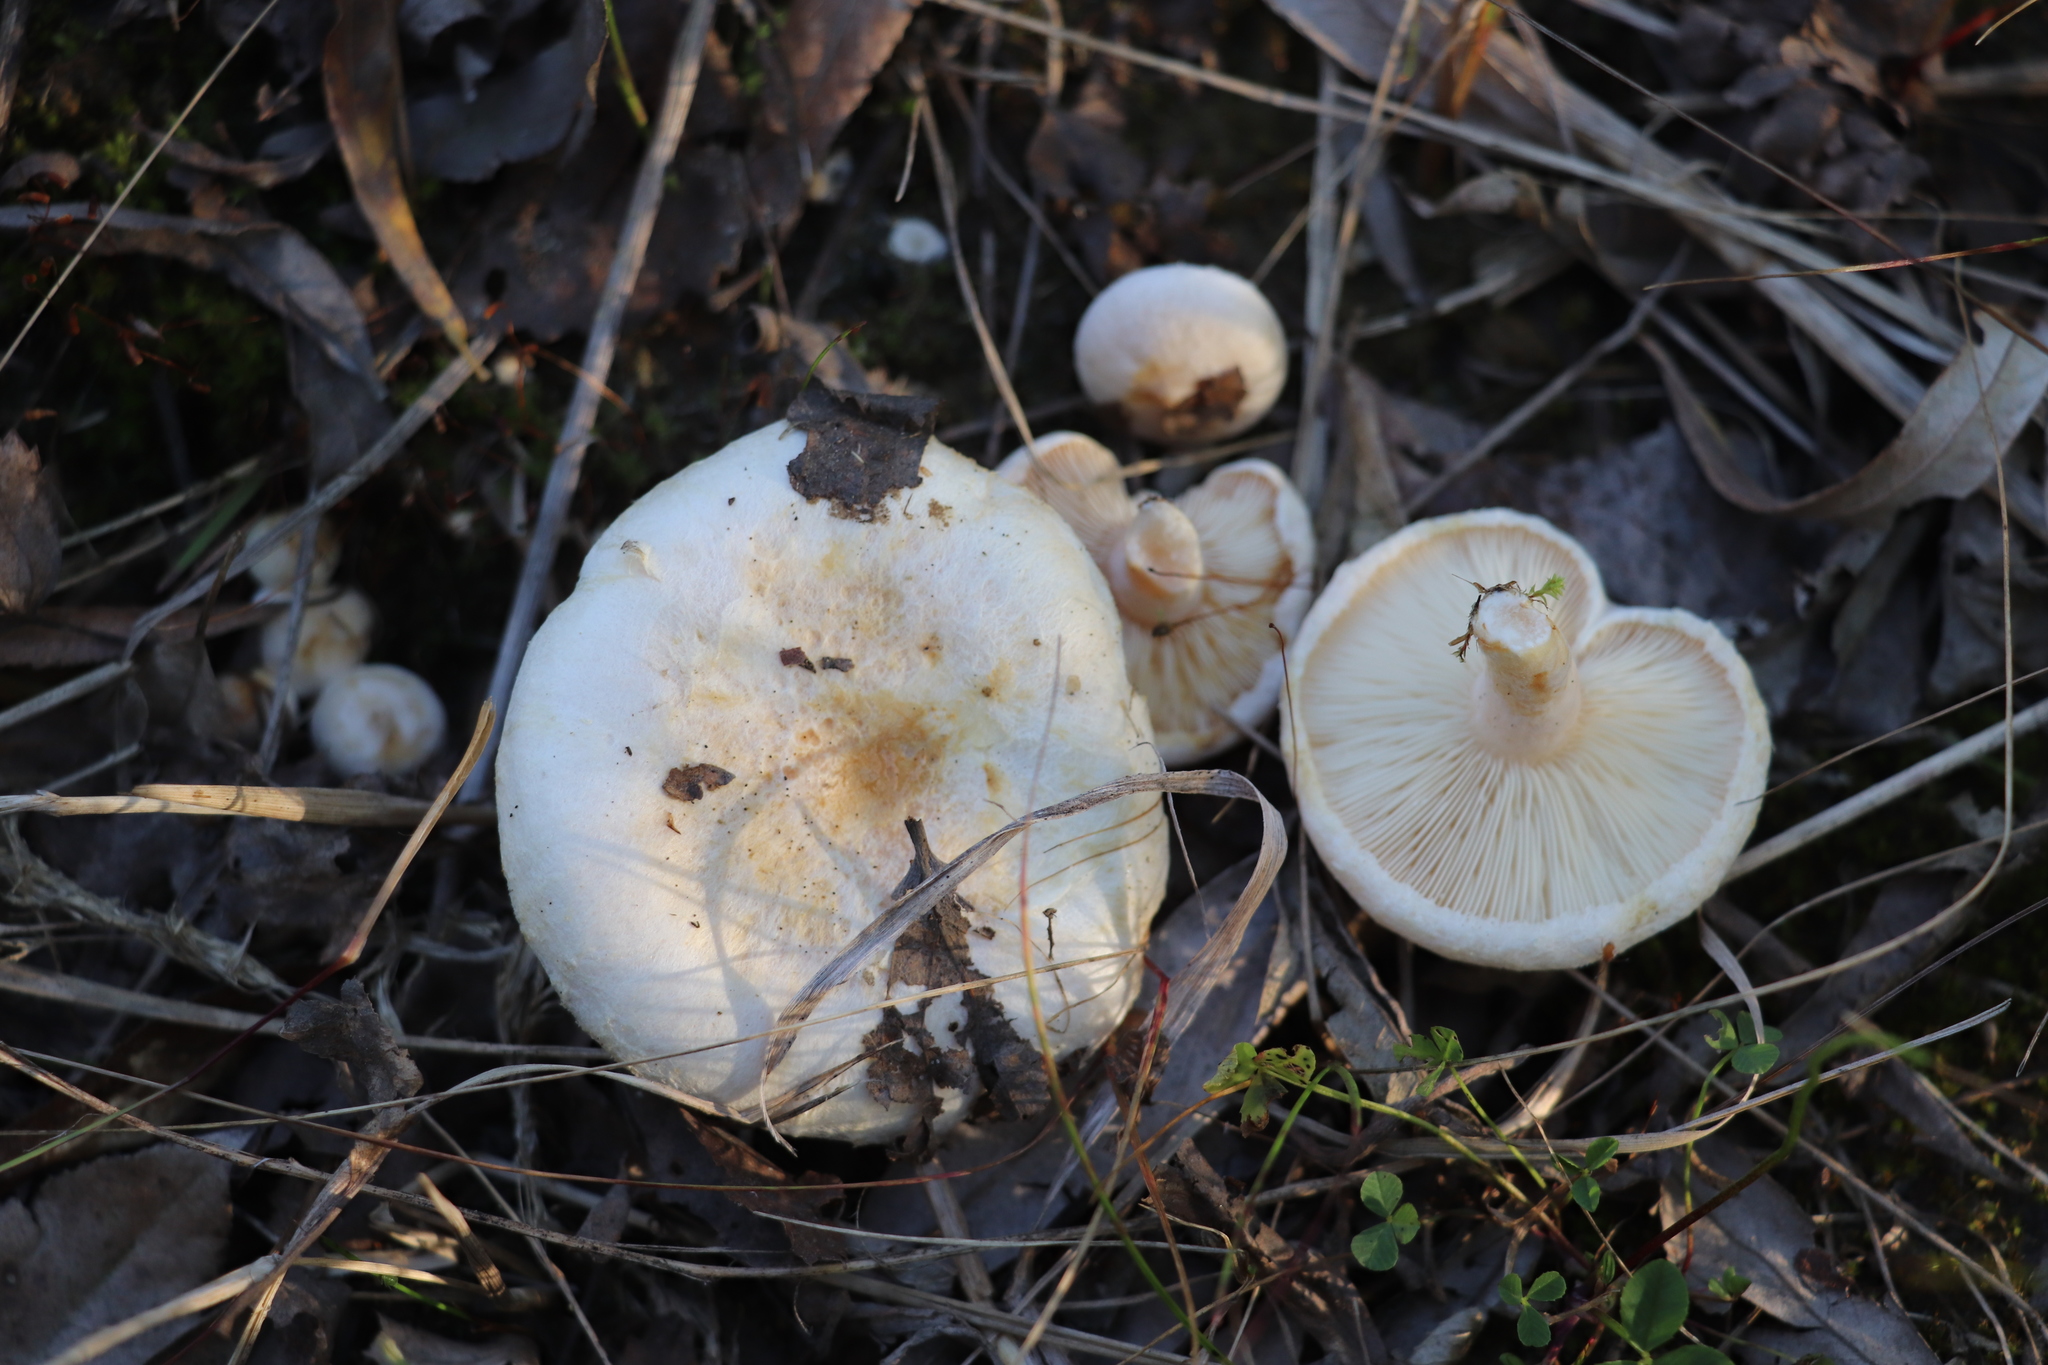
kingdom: Fungi
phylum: Basidiomycota
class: Agaricomycetes
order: Russulales
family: Russulaceae
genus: Lactarius
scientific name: Lactarius pubescens
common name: Bearded milkcap
